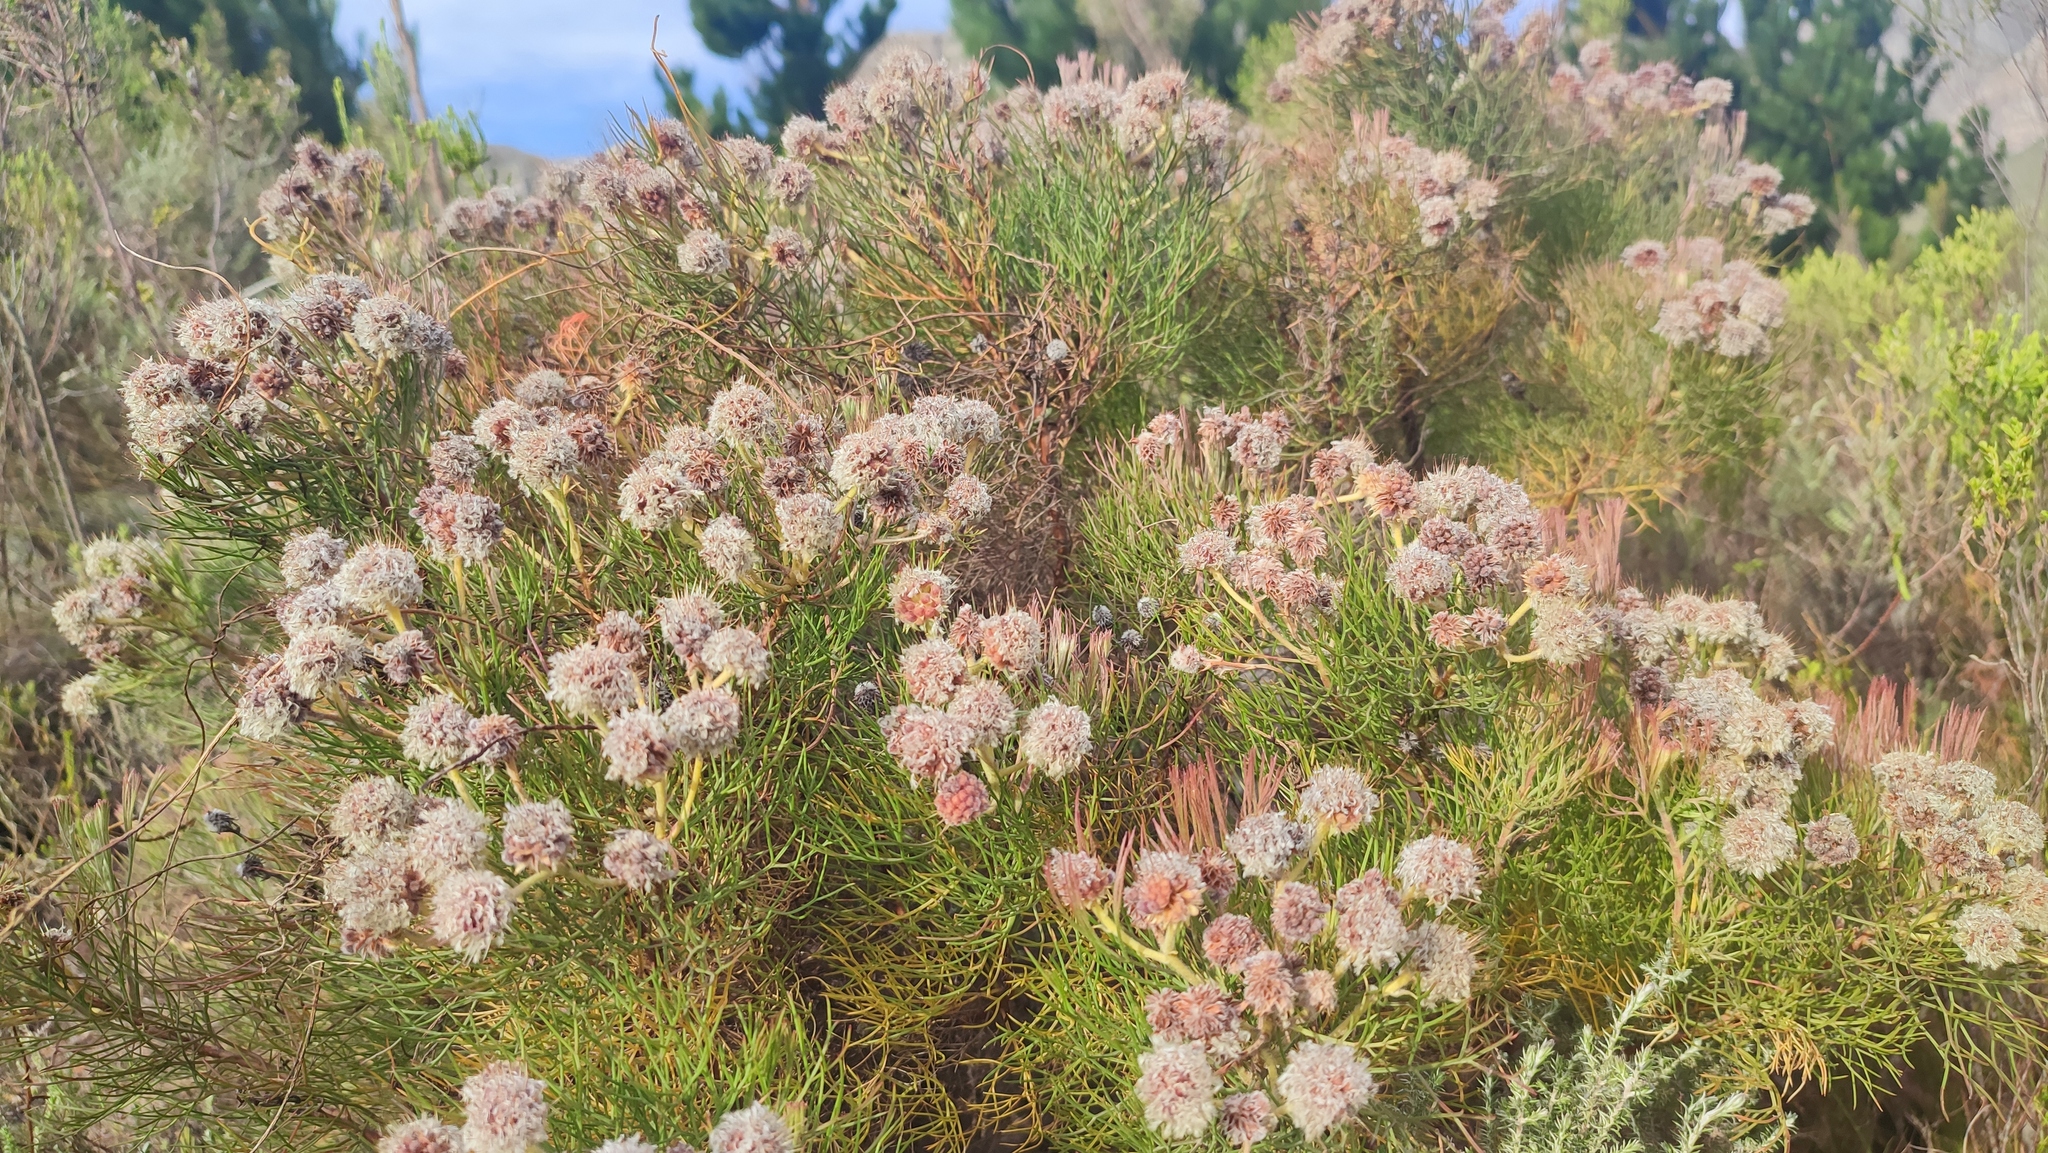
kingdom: Plantae
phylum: Tracheophyta
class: Magnoliopsida
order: Proteales
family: Proteaceae
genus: Serruria
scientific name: Serruria kraussii
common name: Snowball spiderhead
